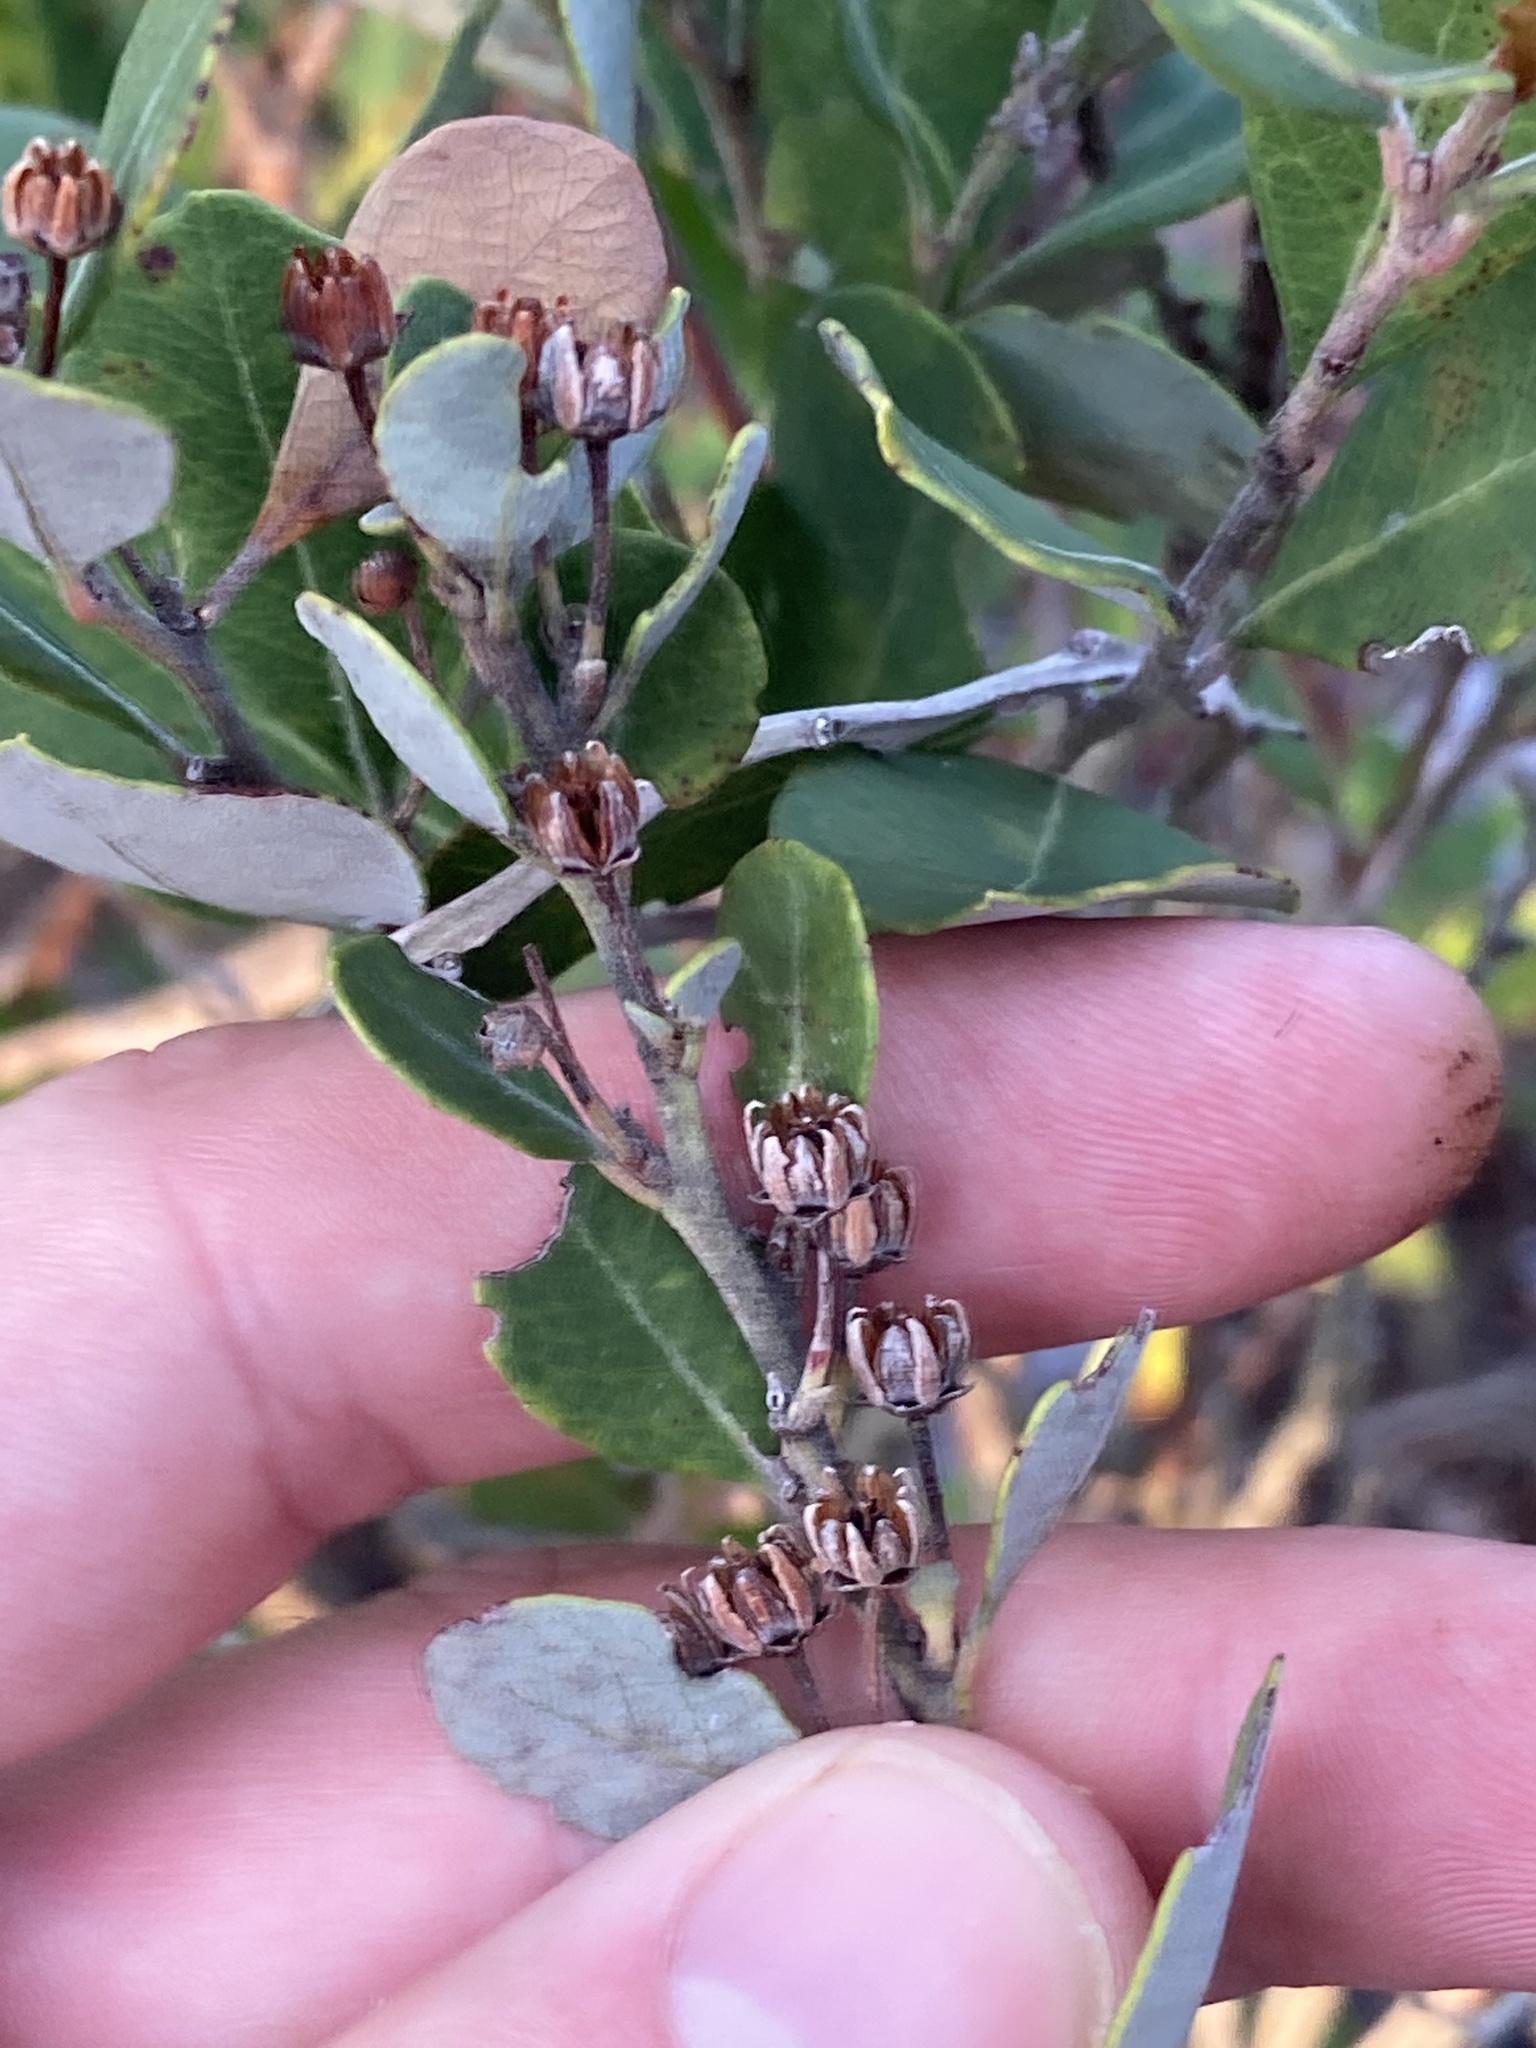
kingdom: Plantae
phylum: Tracheophyta
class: Magnoliopsida
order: Ericales
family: Ericaceae
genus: Lyonia
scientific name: Lyonia fruticosa
